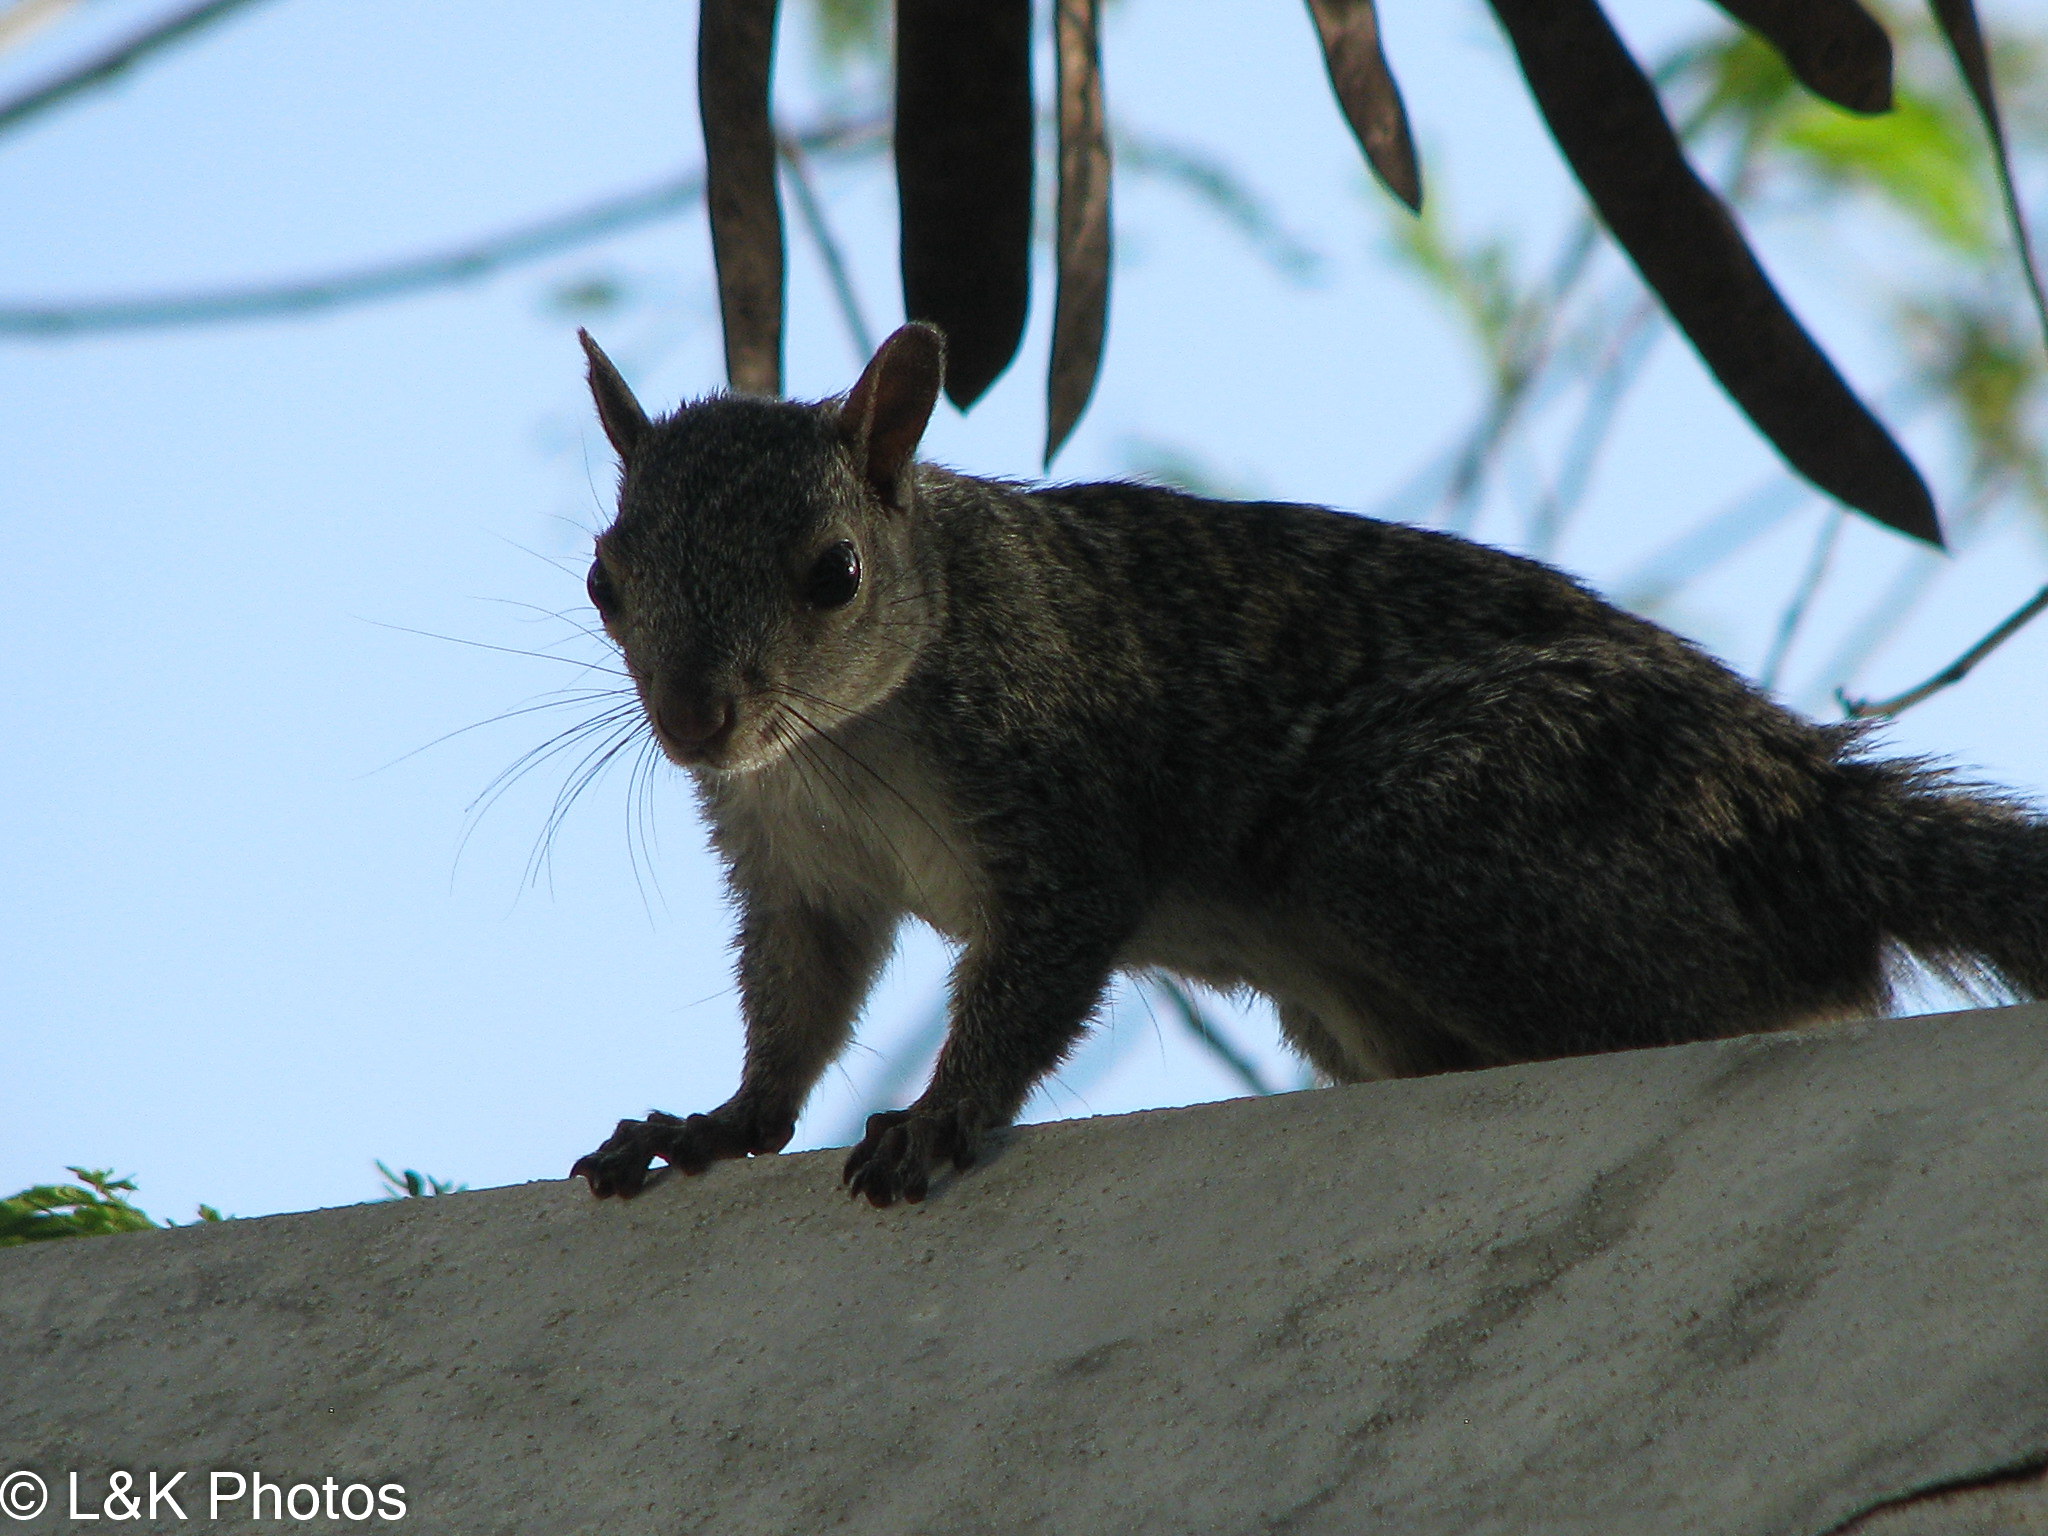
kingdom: Animalia
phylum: Chordata
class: Mammalia
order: Rodentia
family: Sciuridae
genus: Sciurus
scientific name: Sciurus yucatanensis
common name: Yucatan squirrel
